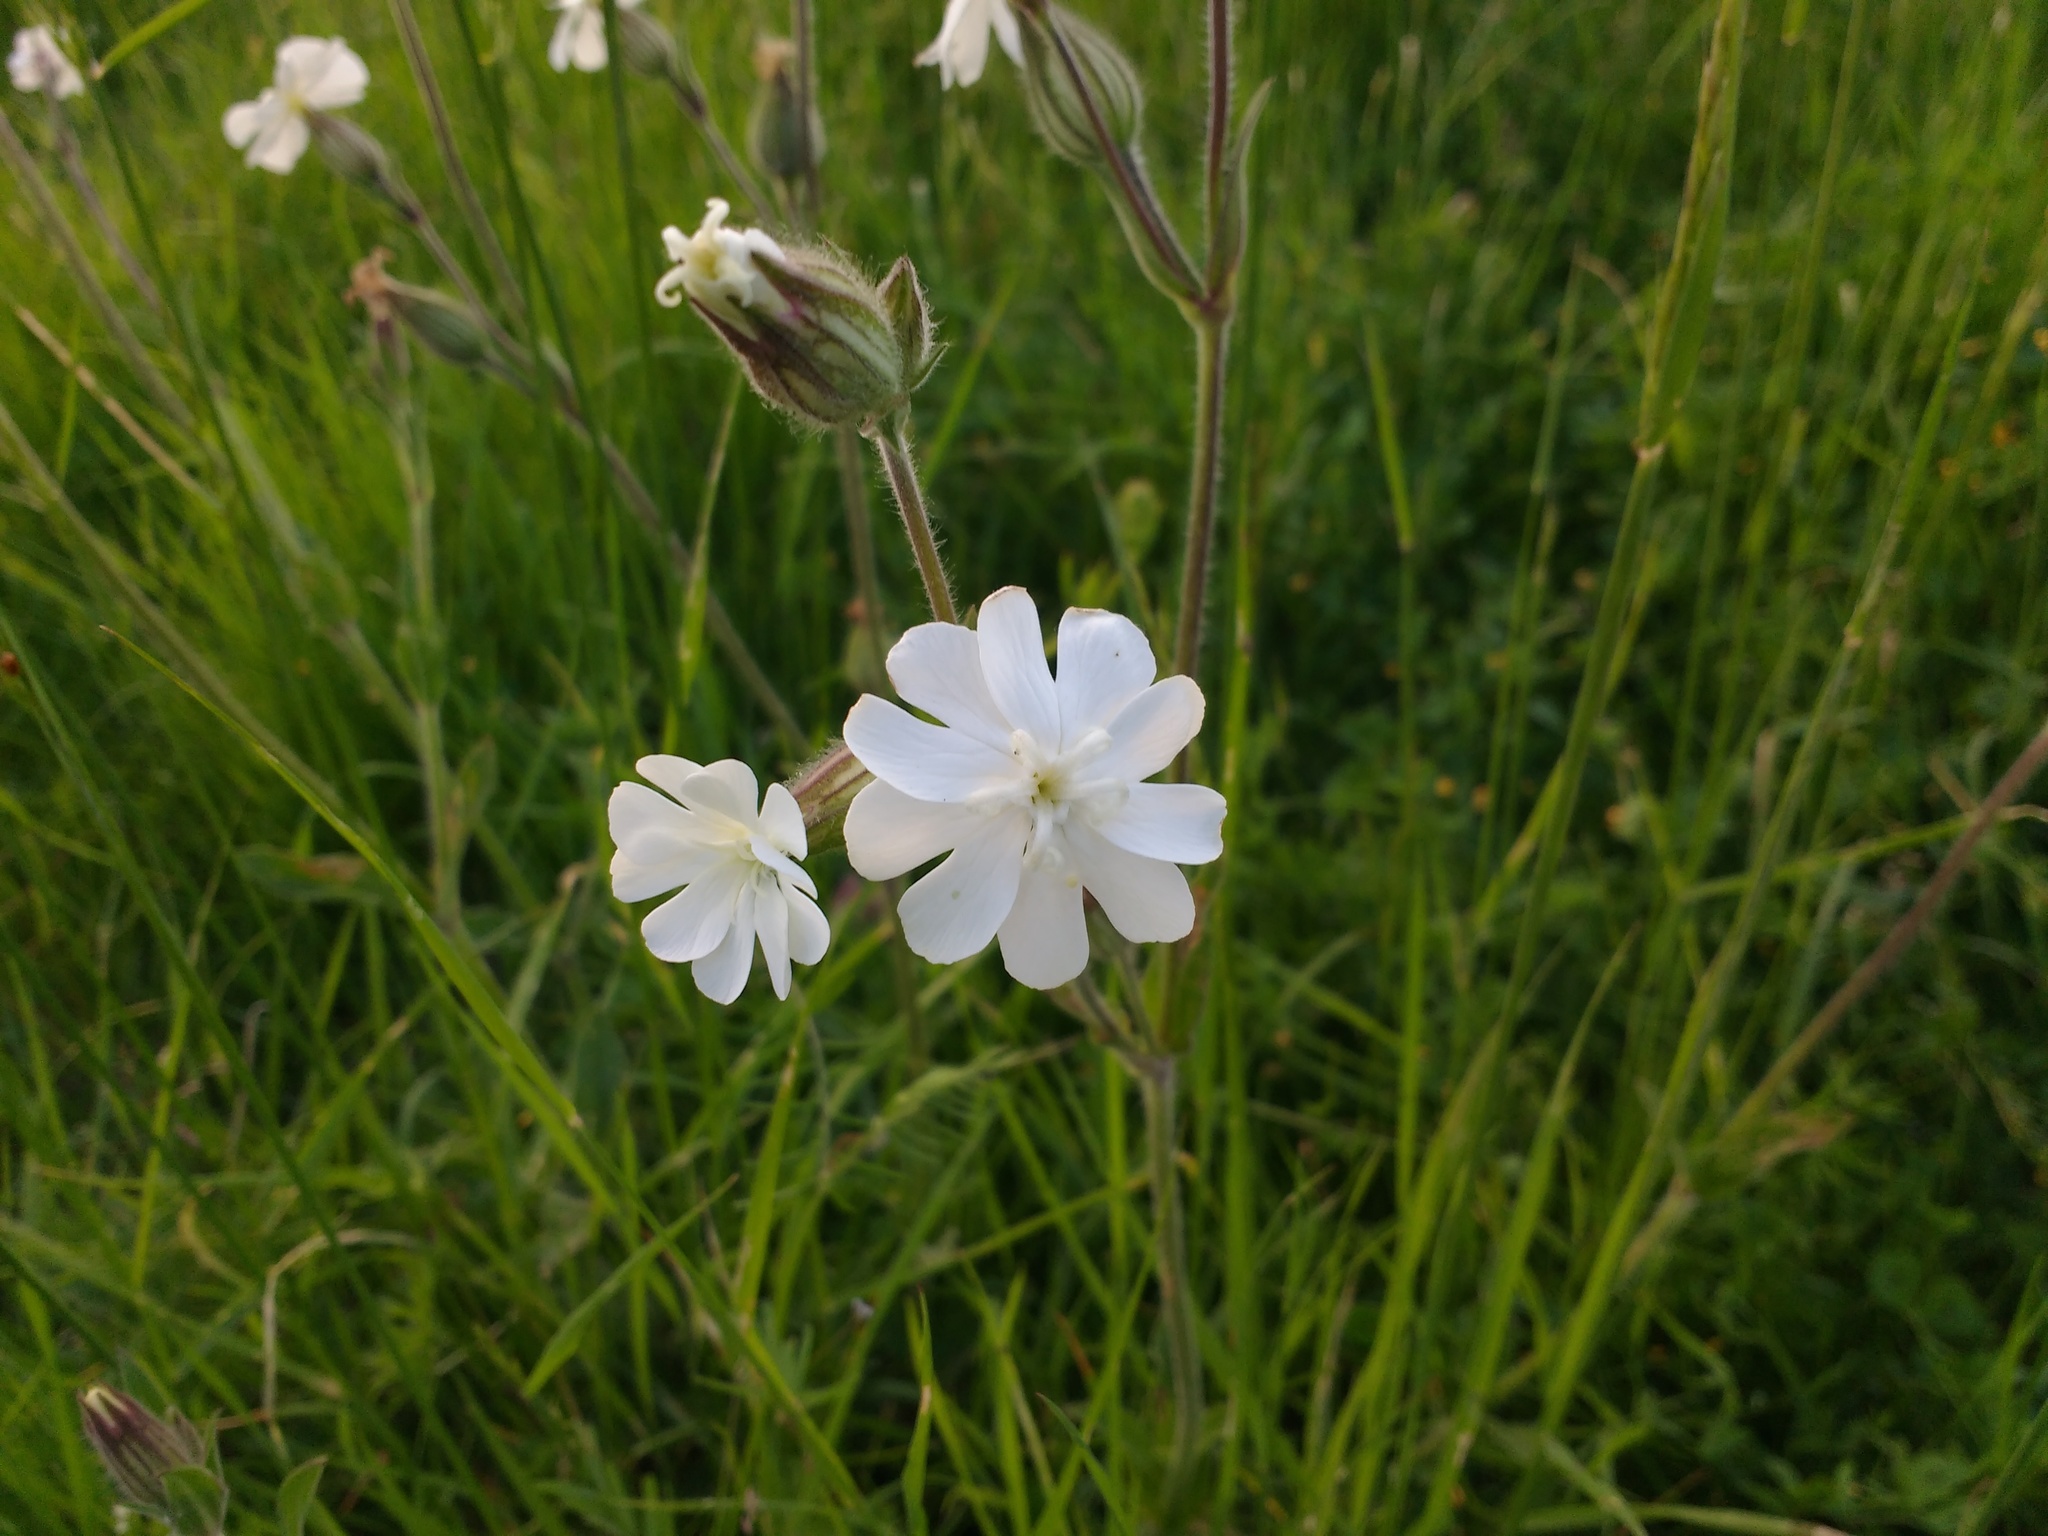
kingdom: Plantae
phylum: Tracheophyta
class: Magnoliopsida
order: Caryophyllales
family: Caryophyllaceae
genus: Silene
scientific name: Silene latifolia
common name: White campion
